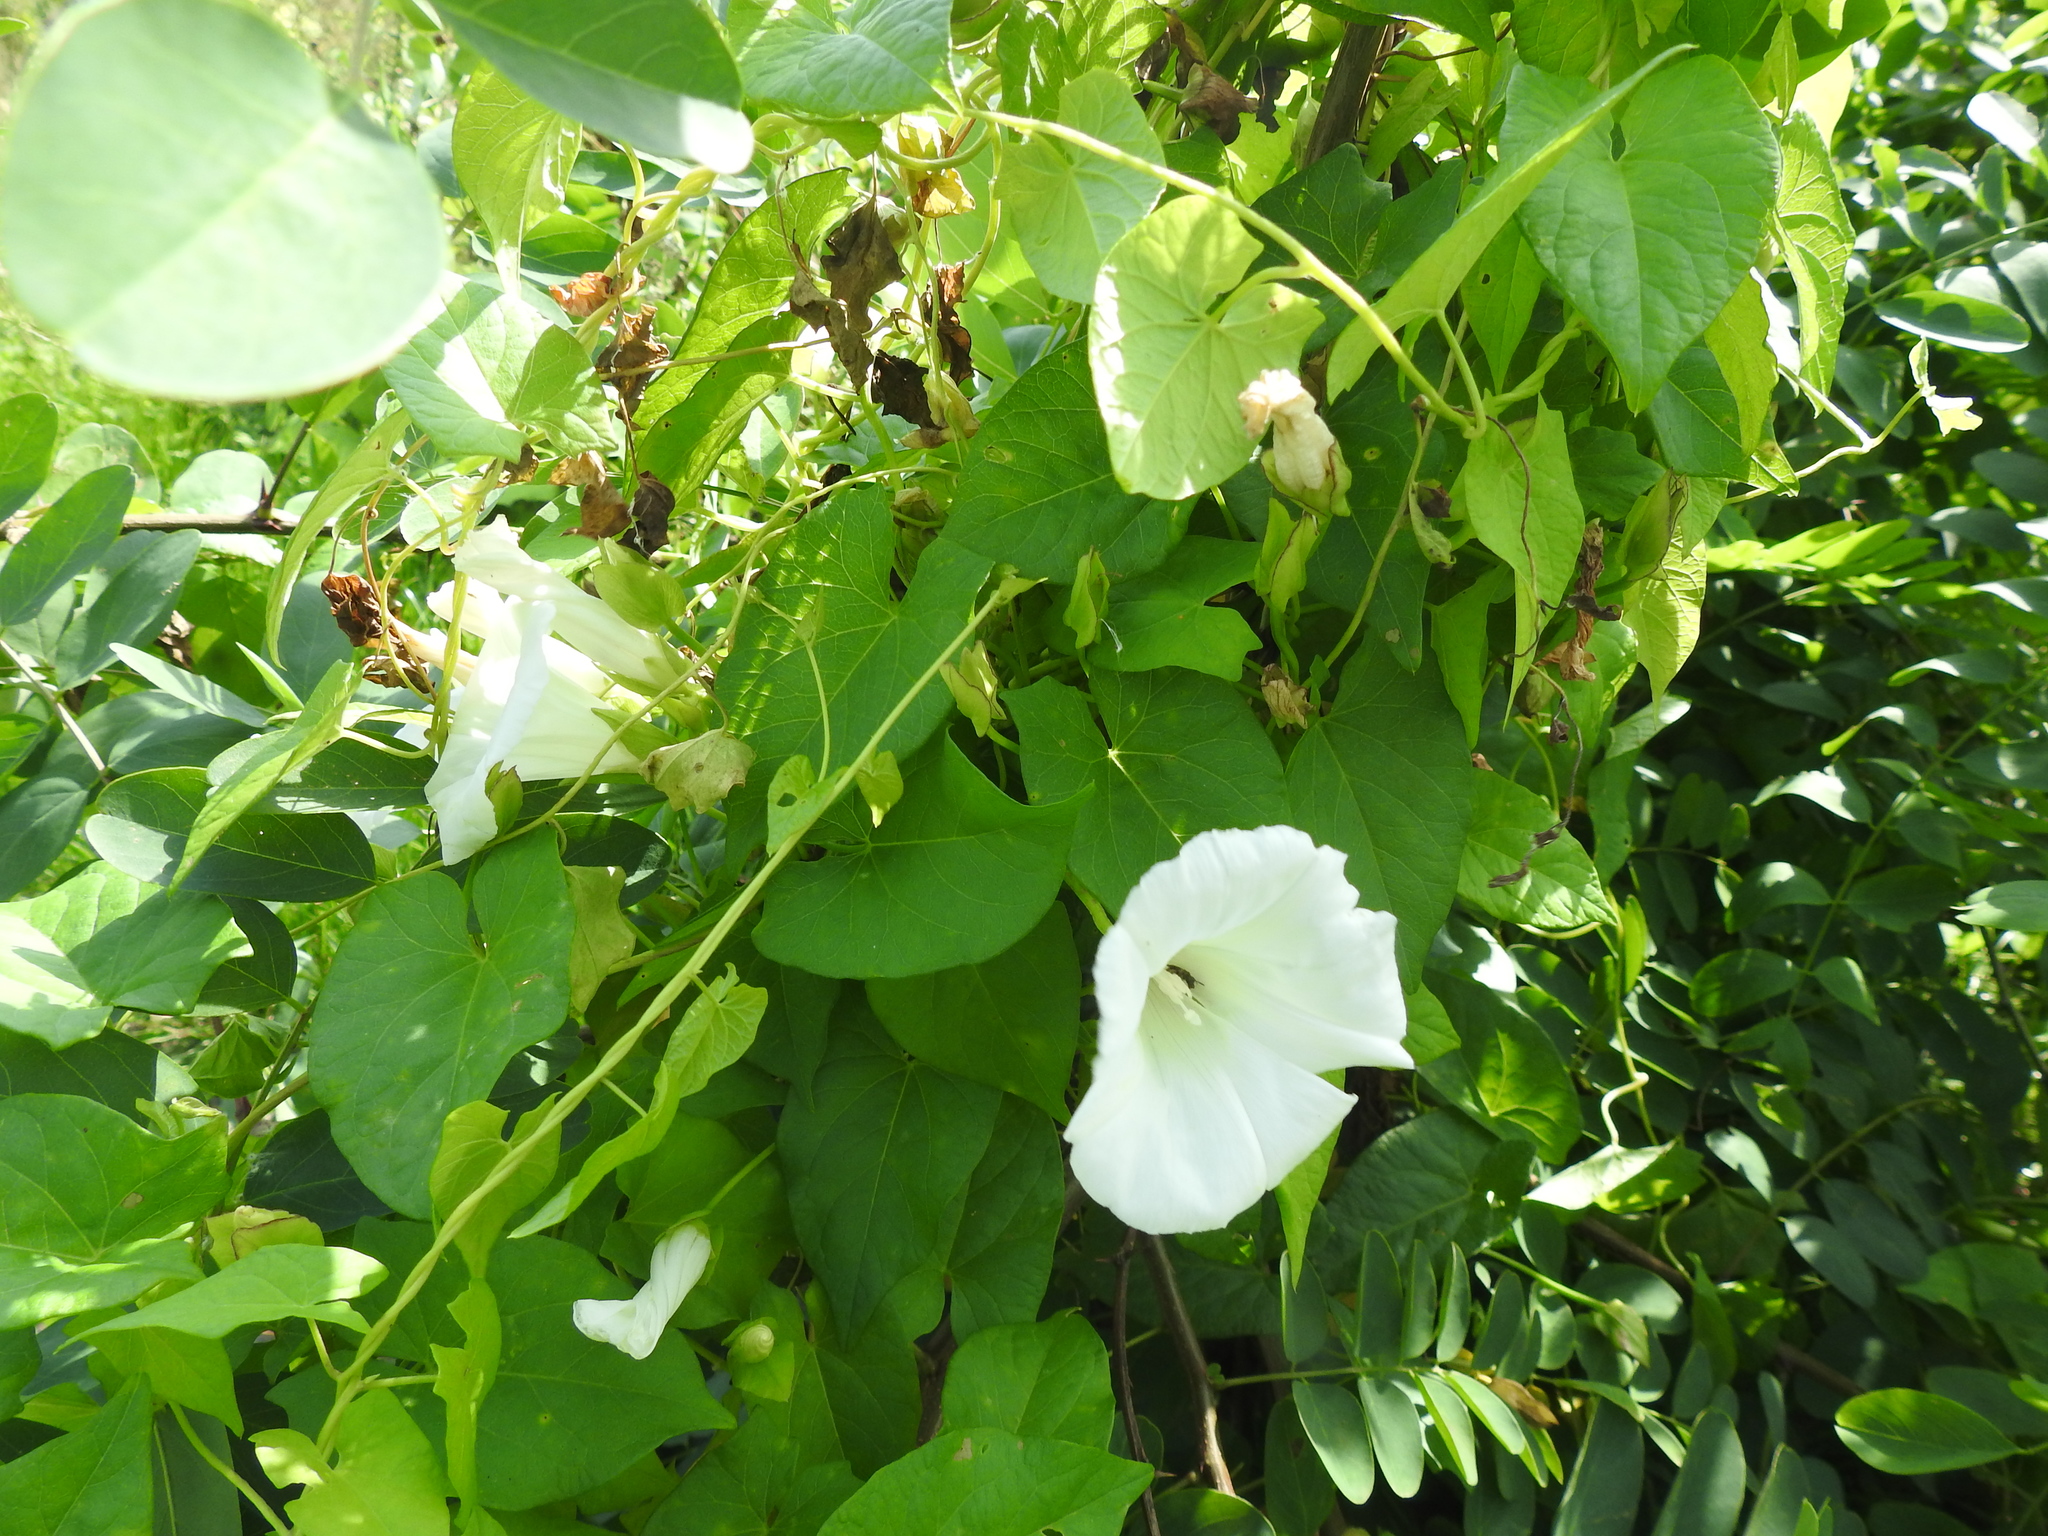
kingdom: Plantae
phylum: Tracheophyta
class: Magnoliopsida
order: Solanales
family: Convolvulaceae
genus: Calystegia
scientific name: Calystegia sepium
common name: Hedge bindweed
